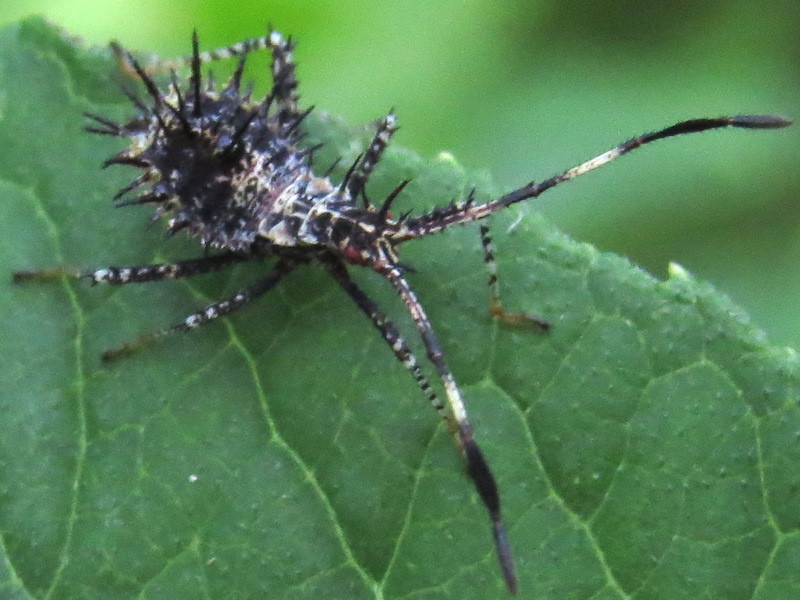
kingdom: Animalia
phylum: Arthropoda
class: Insecta
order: Hemiptera
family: Coreidae
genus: Euthochtha
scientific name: Euthochtha galeator
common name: Helmeted squash bug
